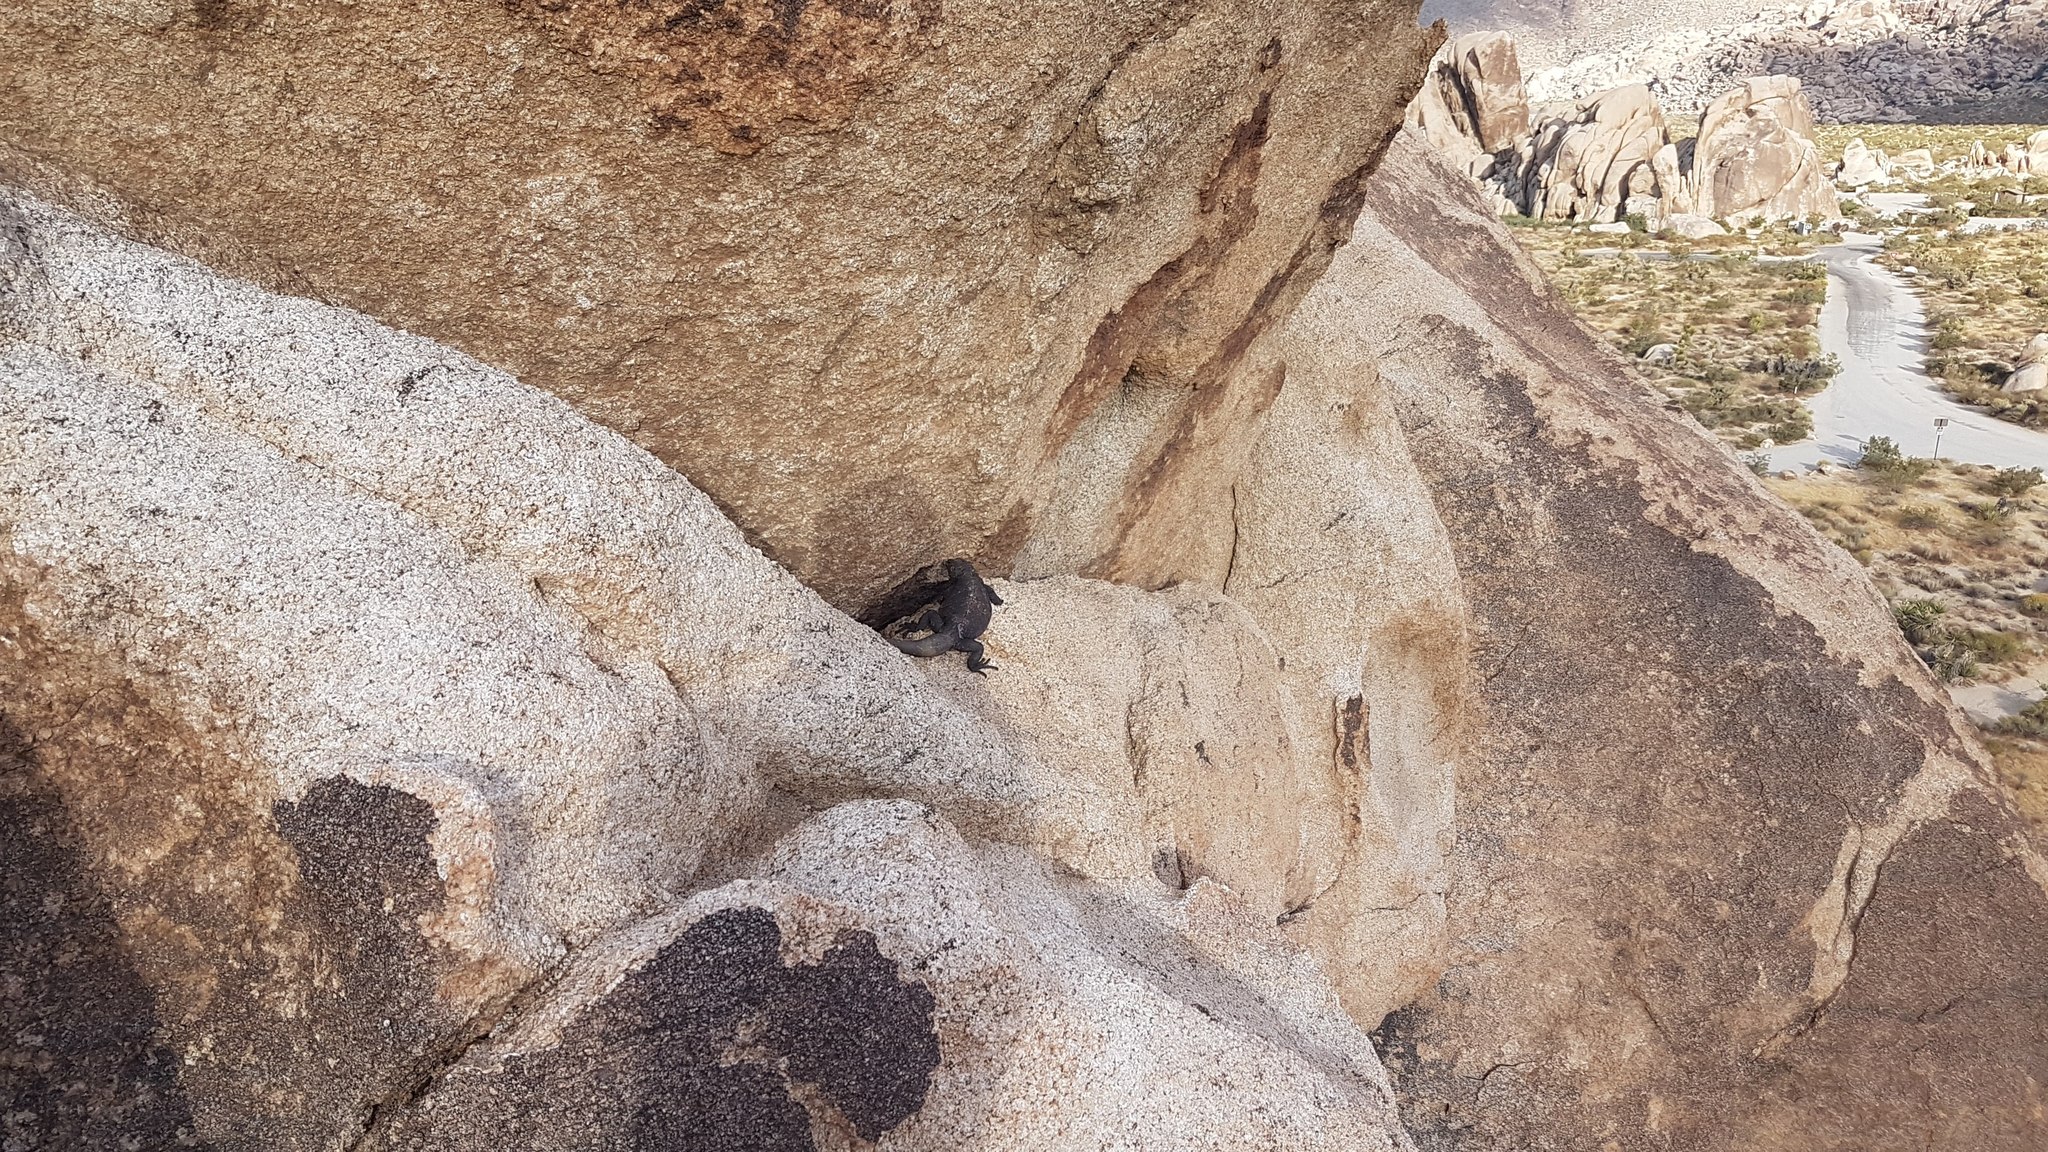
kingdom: Animalia
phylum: Chordata
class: Squamata
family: Iguanidae
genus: Sauromalus
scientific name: Sauromalus ater
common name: Northern chuckwalla
